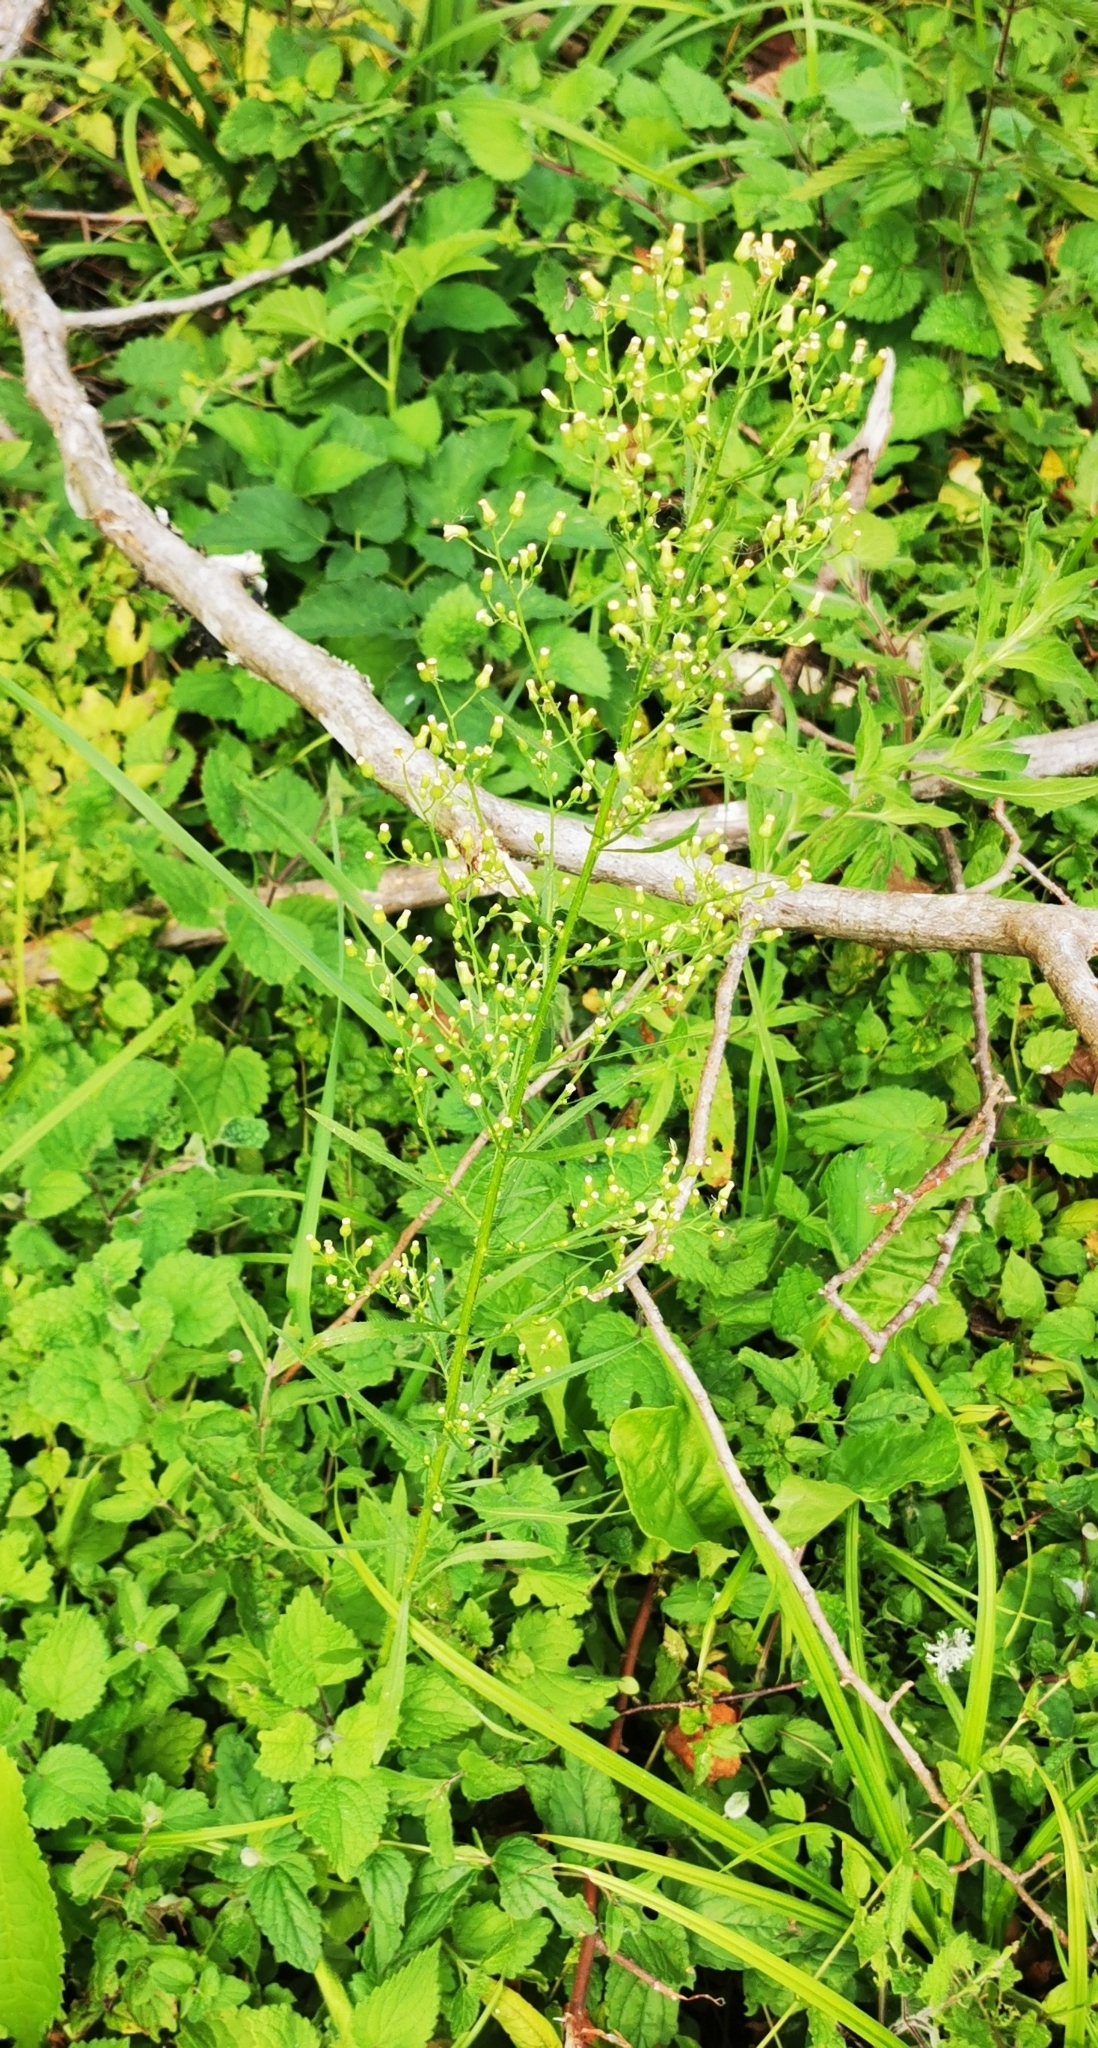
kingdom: Plantae
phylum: Tracheophyta
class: Magnoliopsida
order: Asterales
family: Asteraceae
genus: Erigeron
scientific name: Erigeron canadensis
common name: Canadian fleabane
